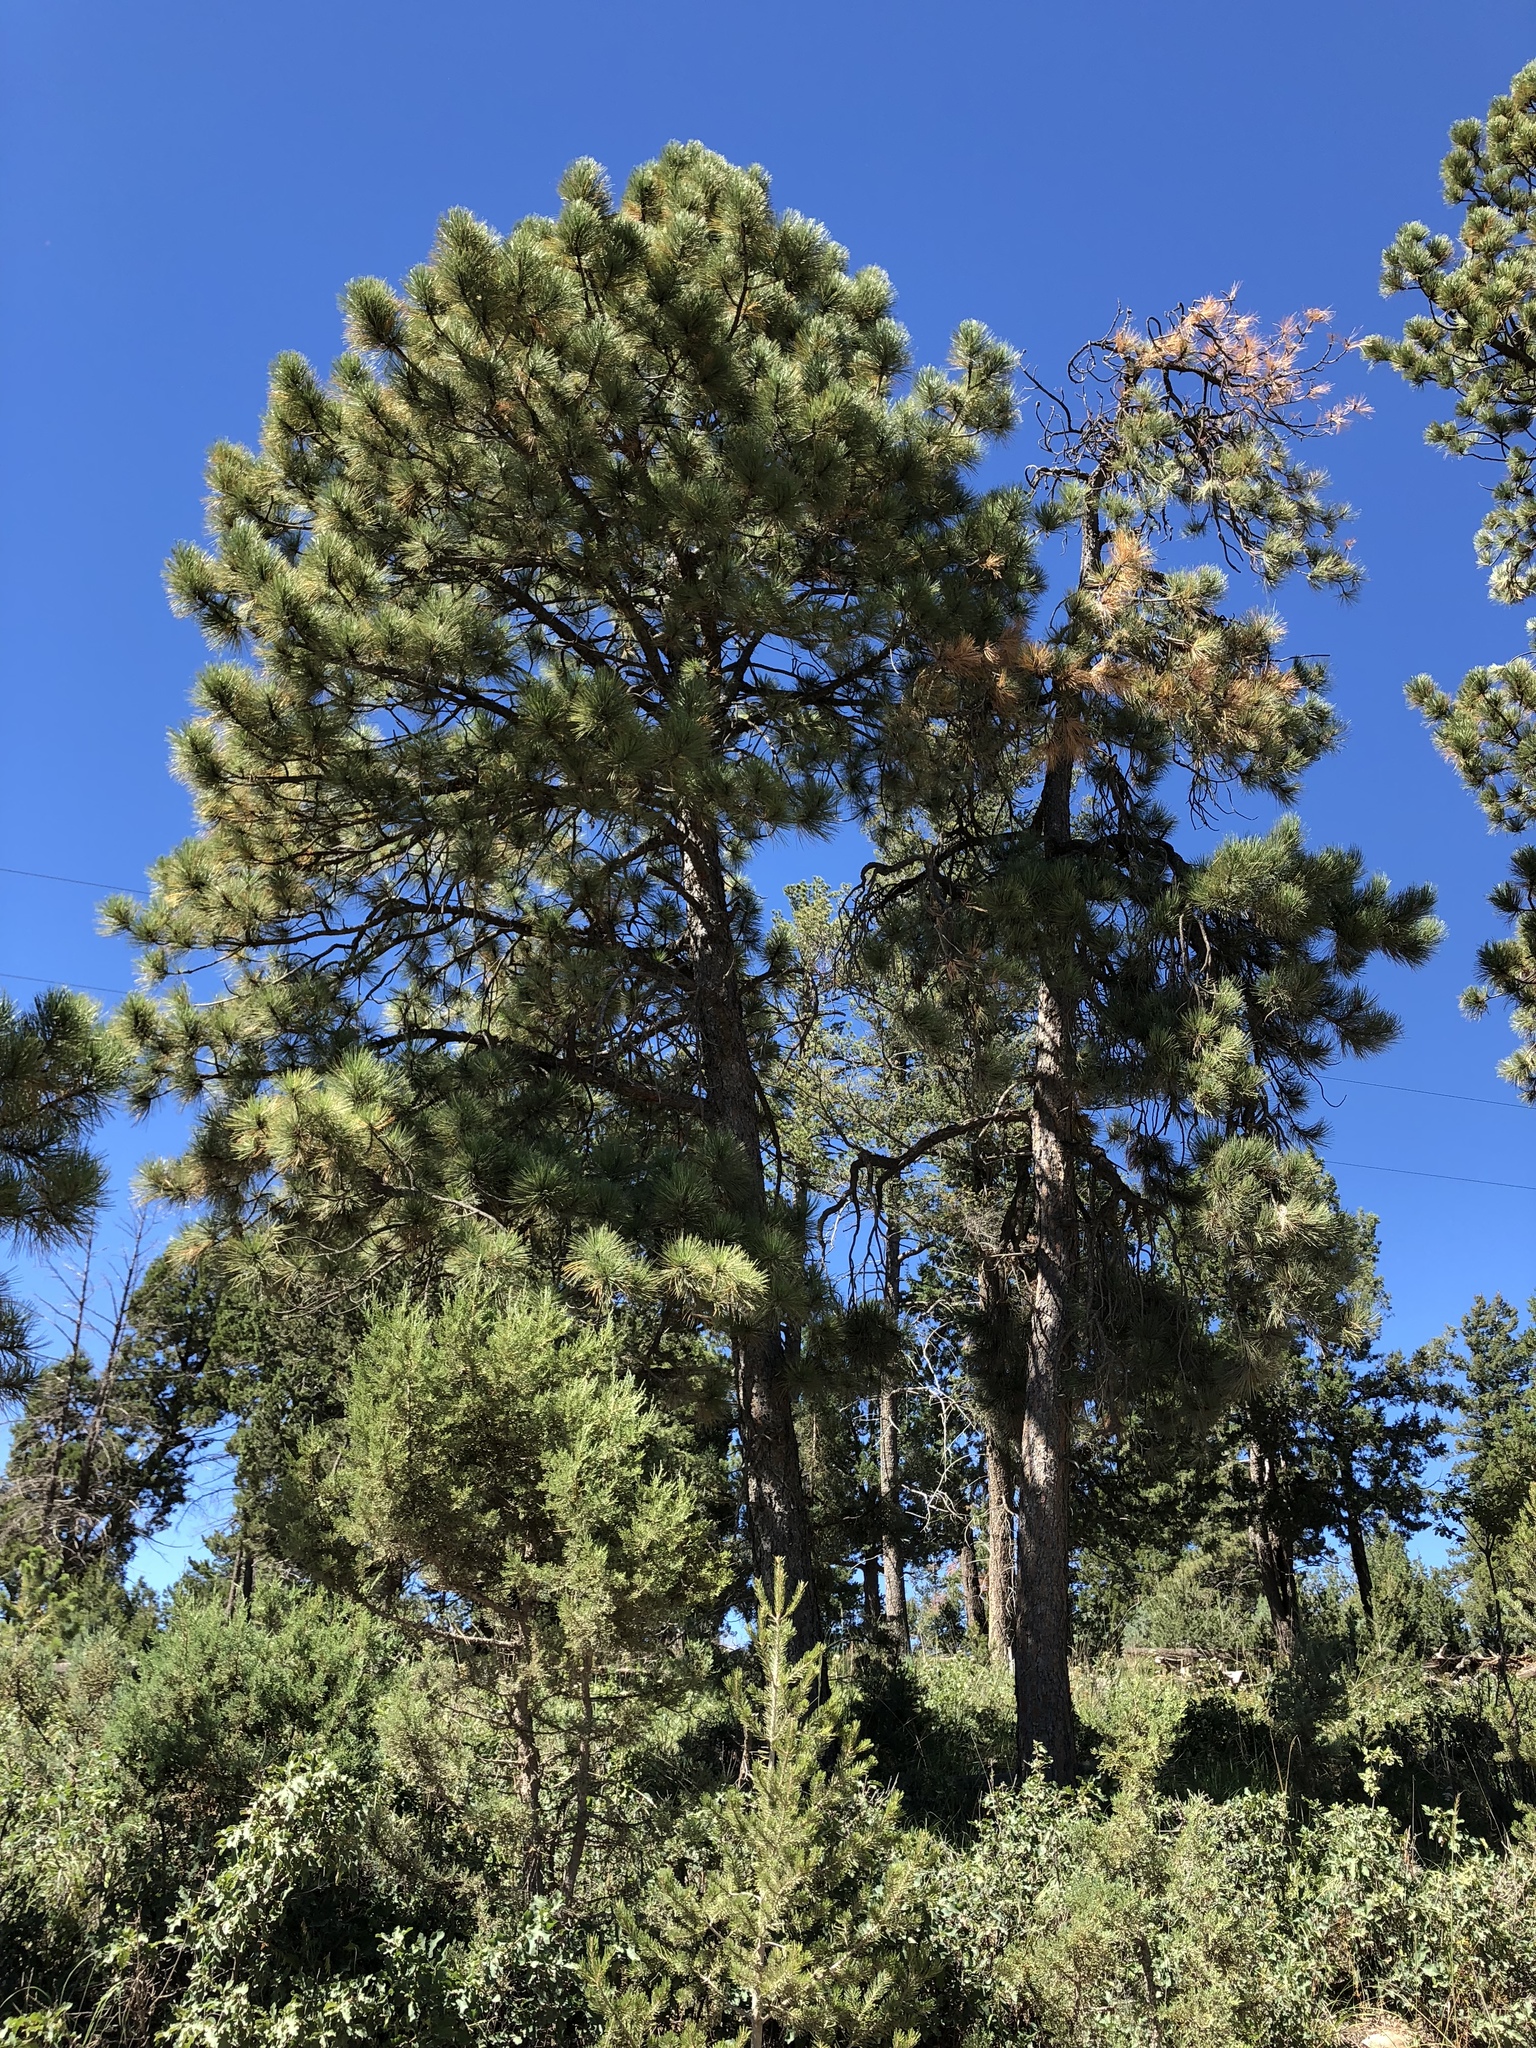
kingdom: Plantae
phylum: Tracheophyta
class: Pinopsida
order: Pinales
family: Pinaceae
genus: Pinus
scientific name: Pinus ponderosa
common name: Western yellow-pine
